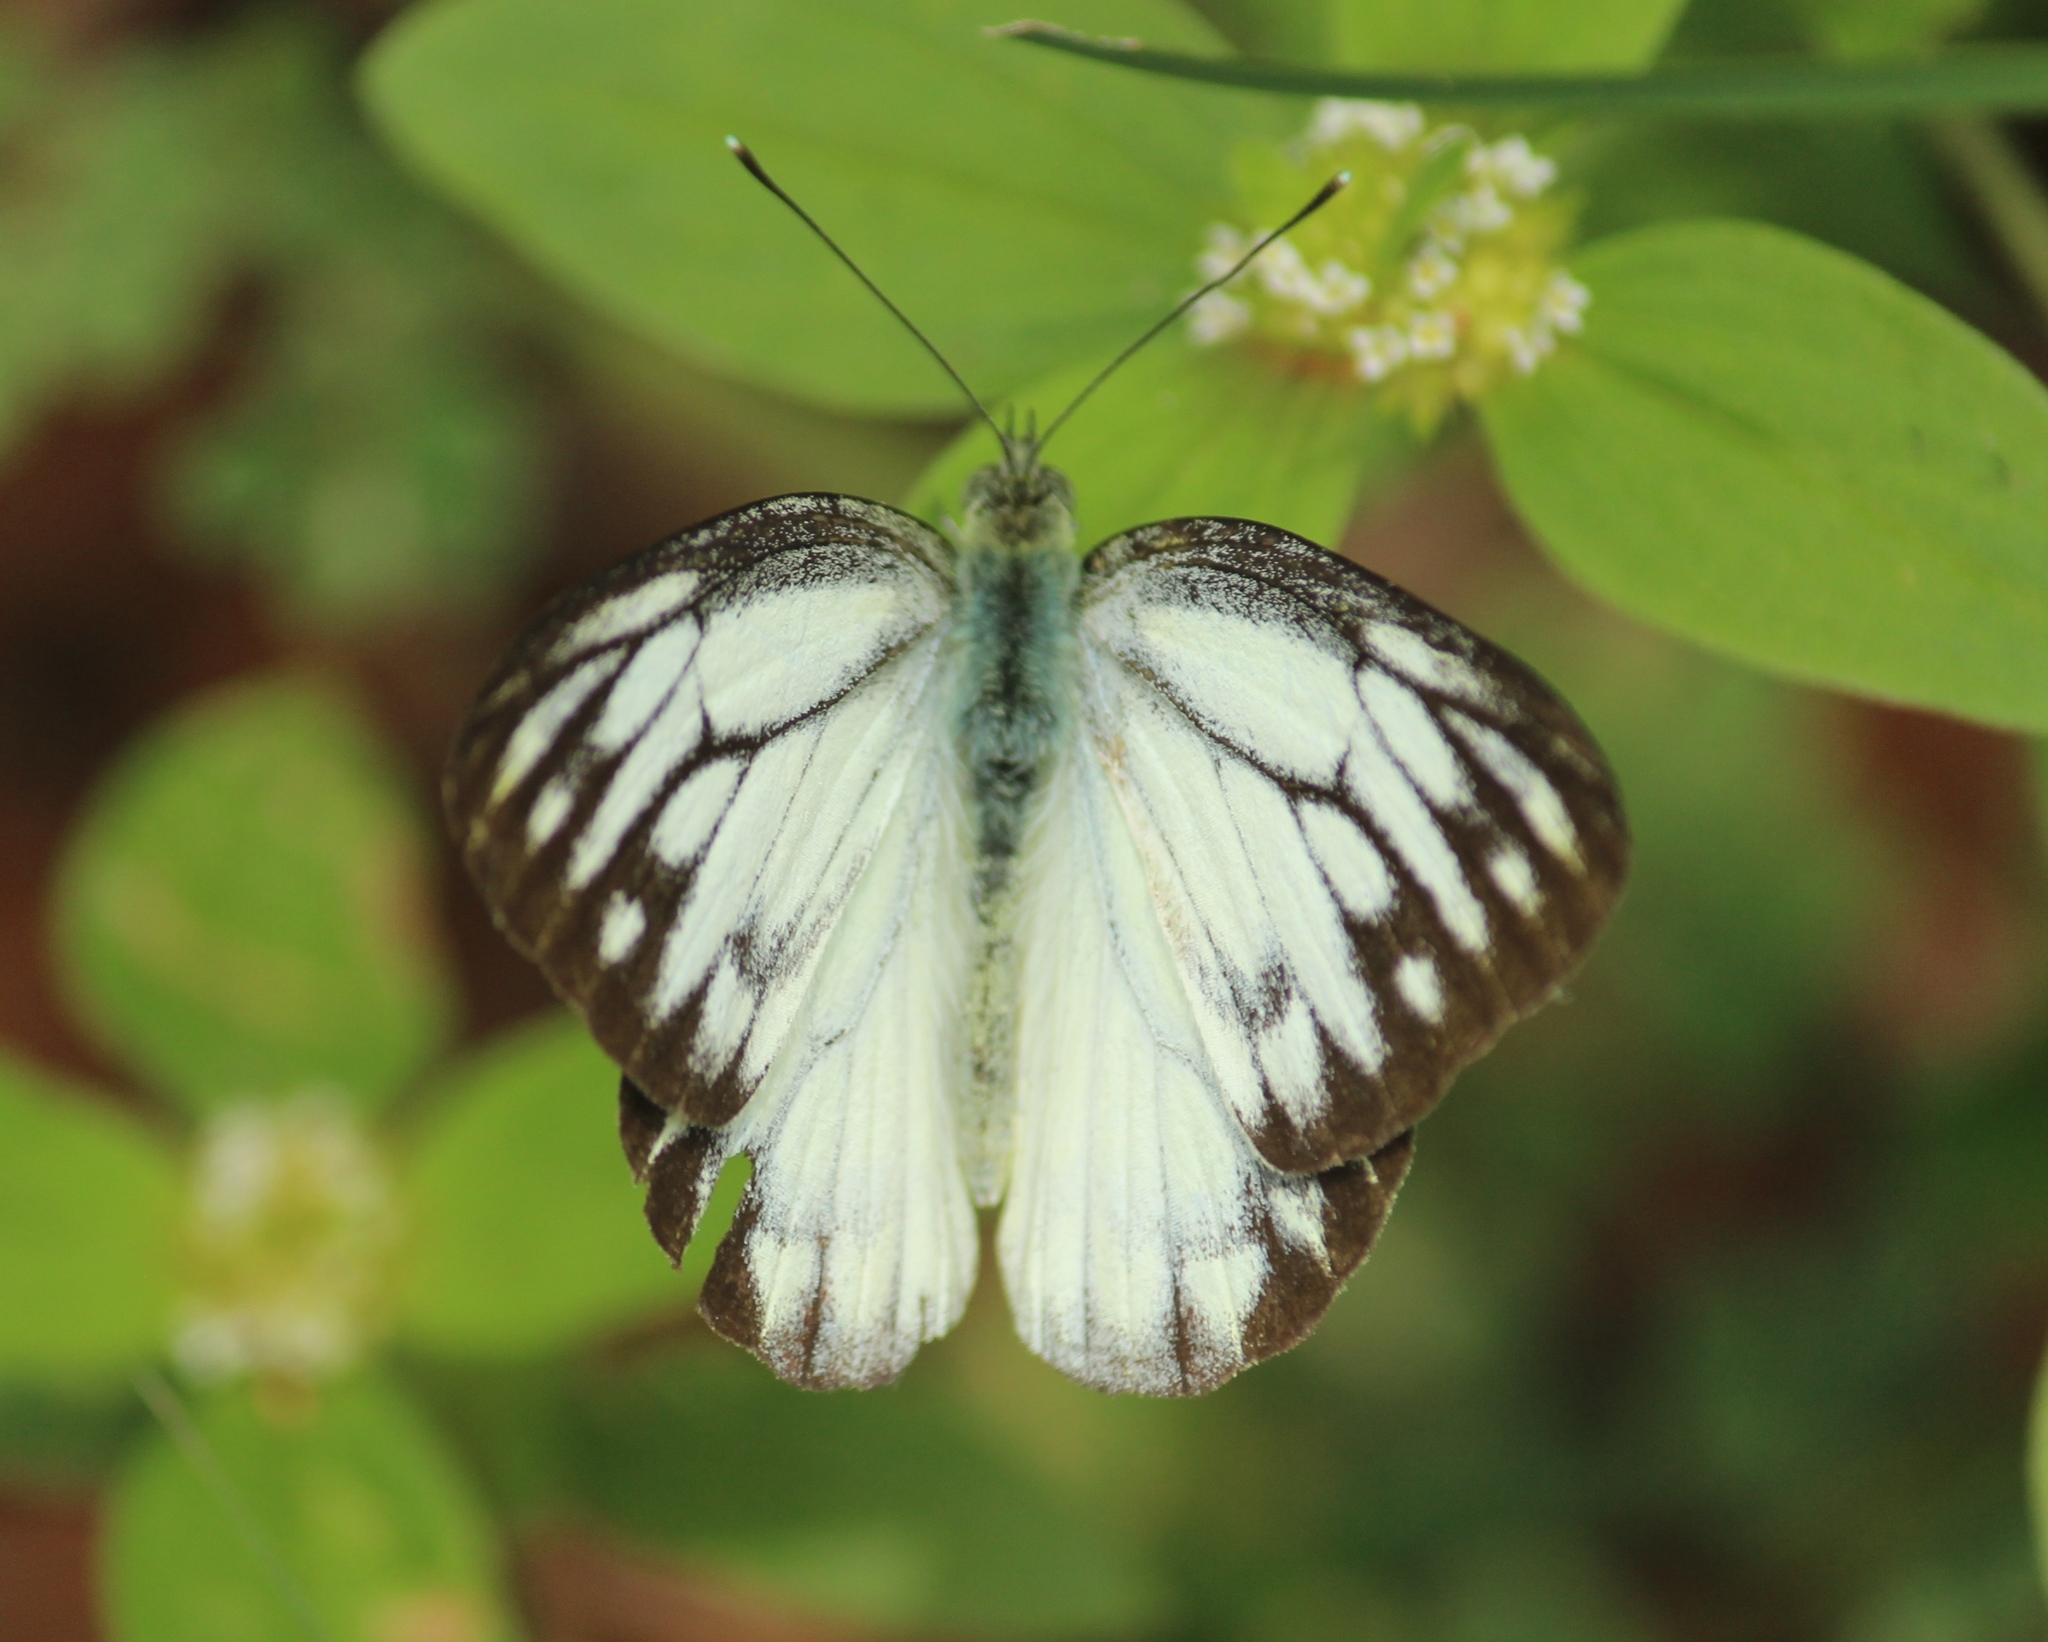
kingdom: Animalia
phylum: Arthropoda
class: Insecta
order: Lepidoptera
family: Pieridae
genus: Cepora
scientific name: Cepora nerissa
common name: Common gull
